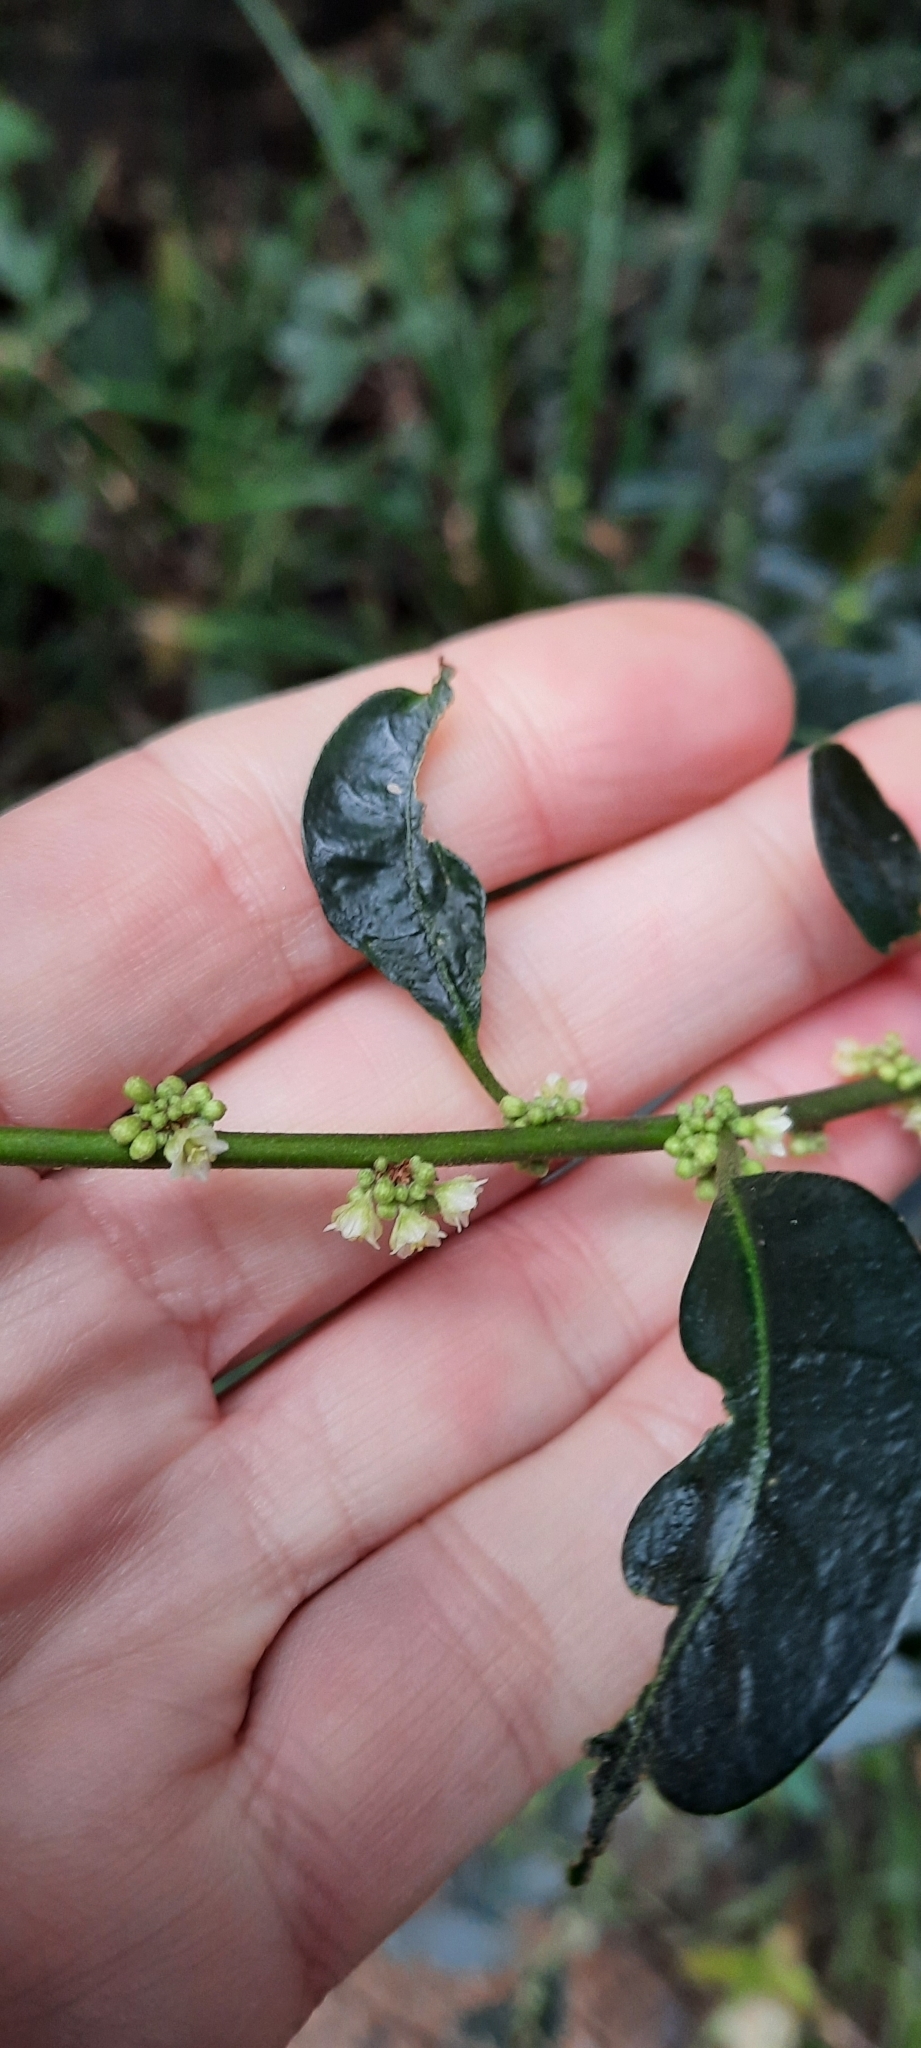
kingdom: Plantae
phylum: Tracheophyta
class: Magnoliopsida
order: Malpighiales
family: Peraceae
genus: Clutia
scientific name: Clutia pulchella
